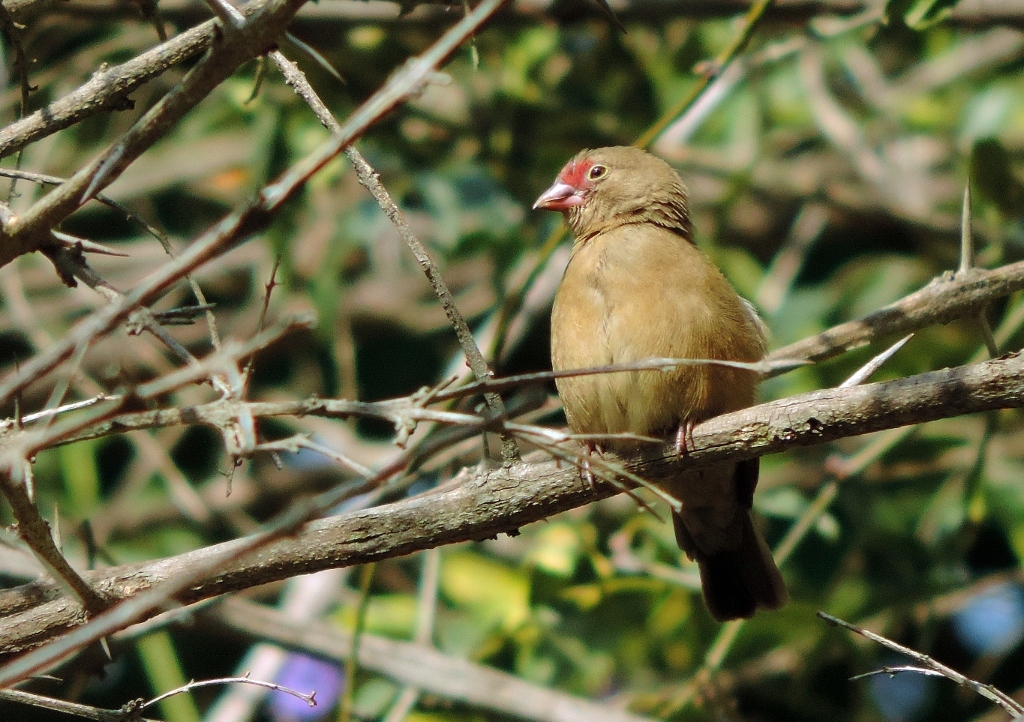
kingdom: Animalia
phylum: Chordata
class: Aves
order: Passeriformes
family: Estrildidae
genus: Lagonosticta
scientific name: Lagonosticta senegala
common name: Red-billed firefinch
